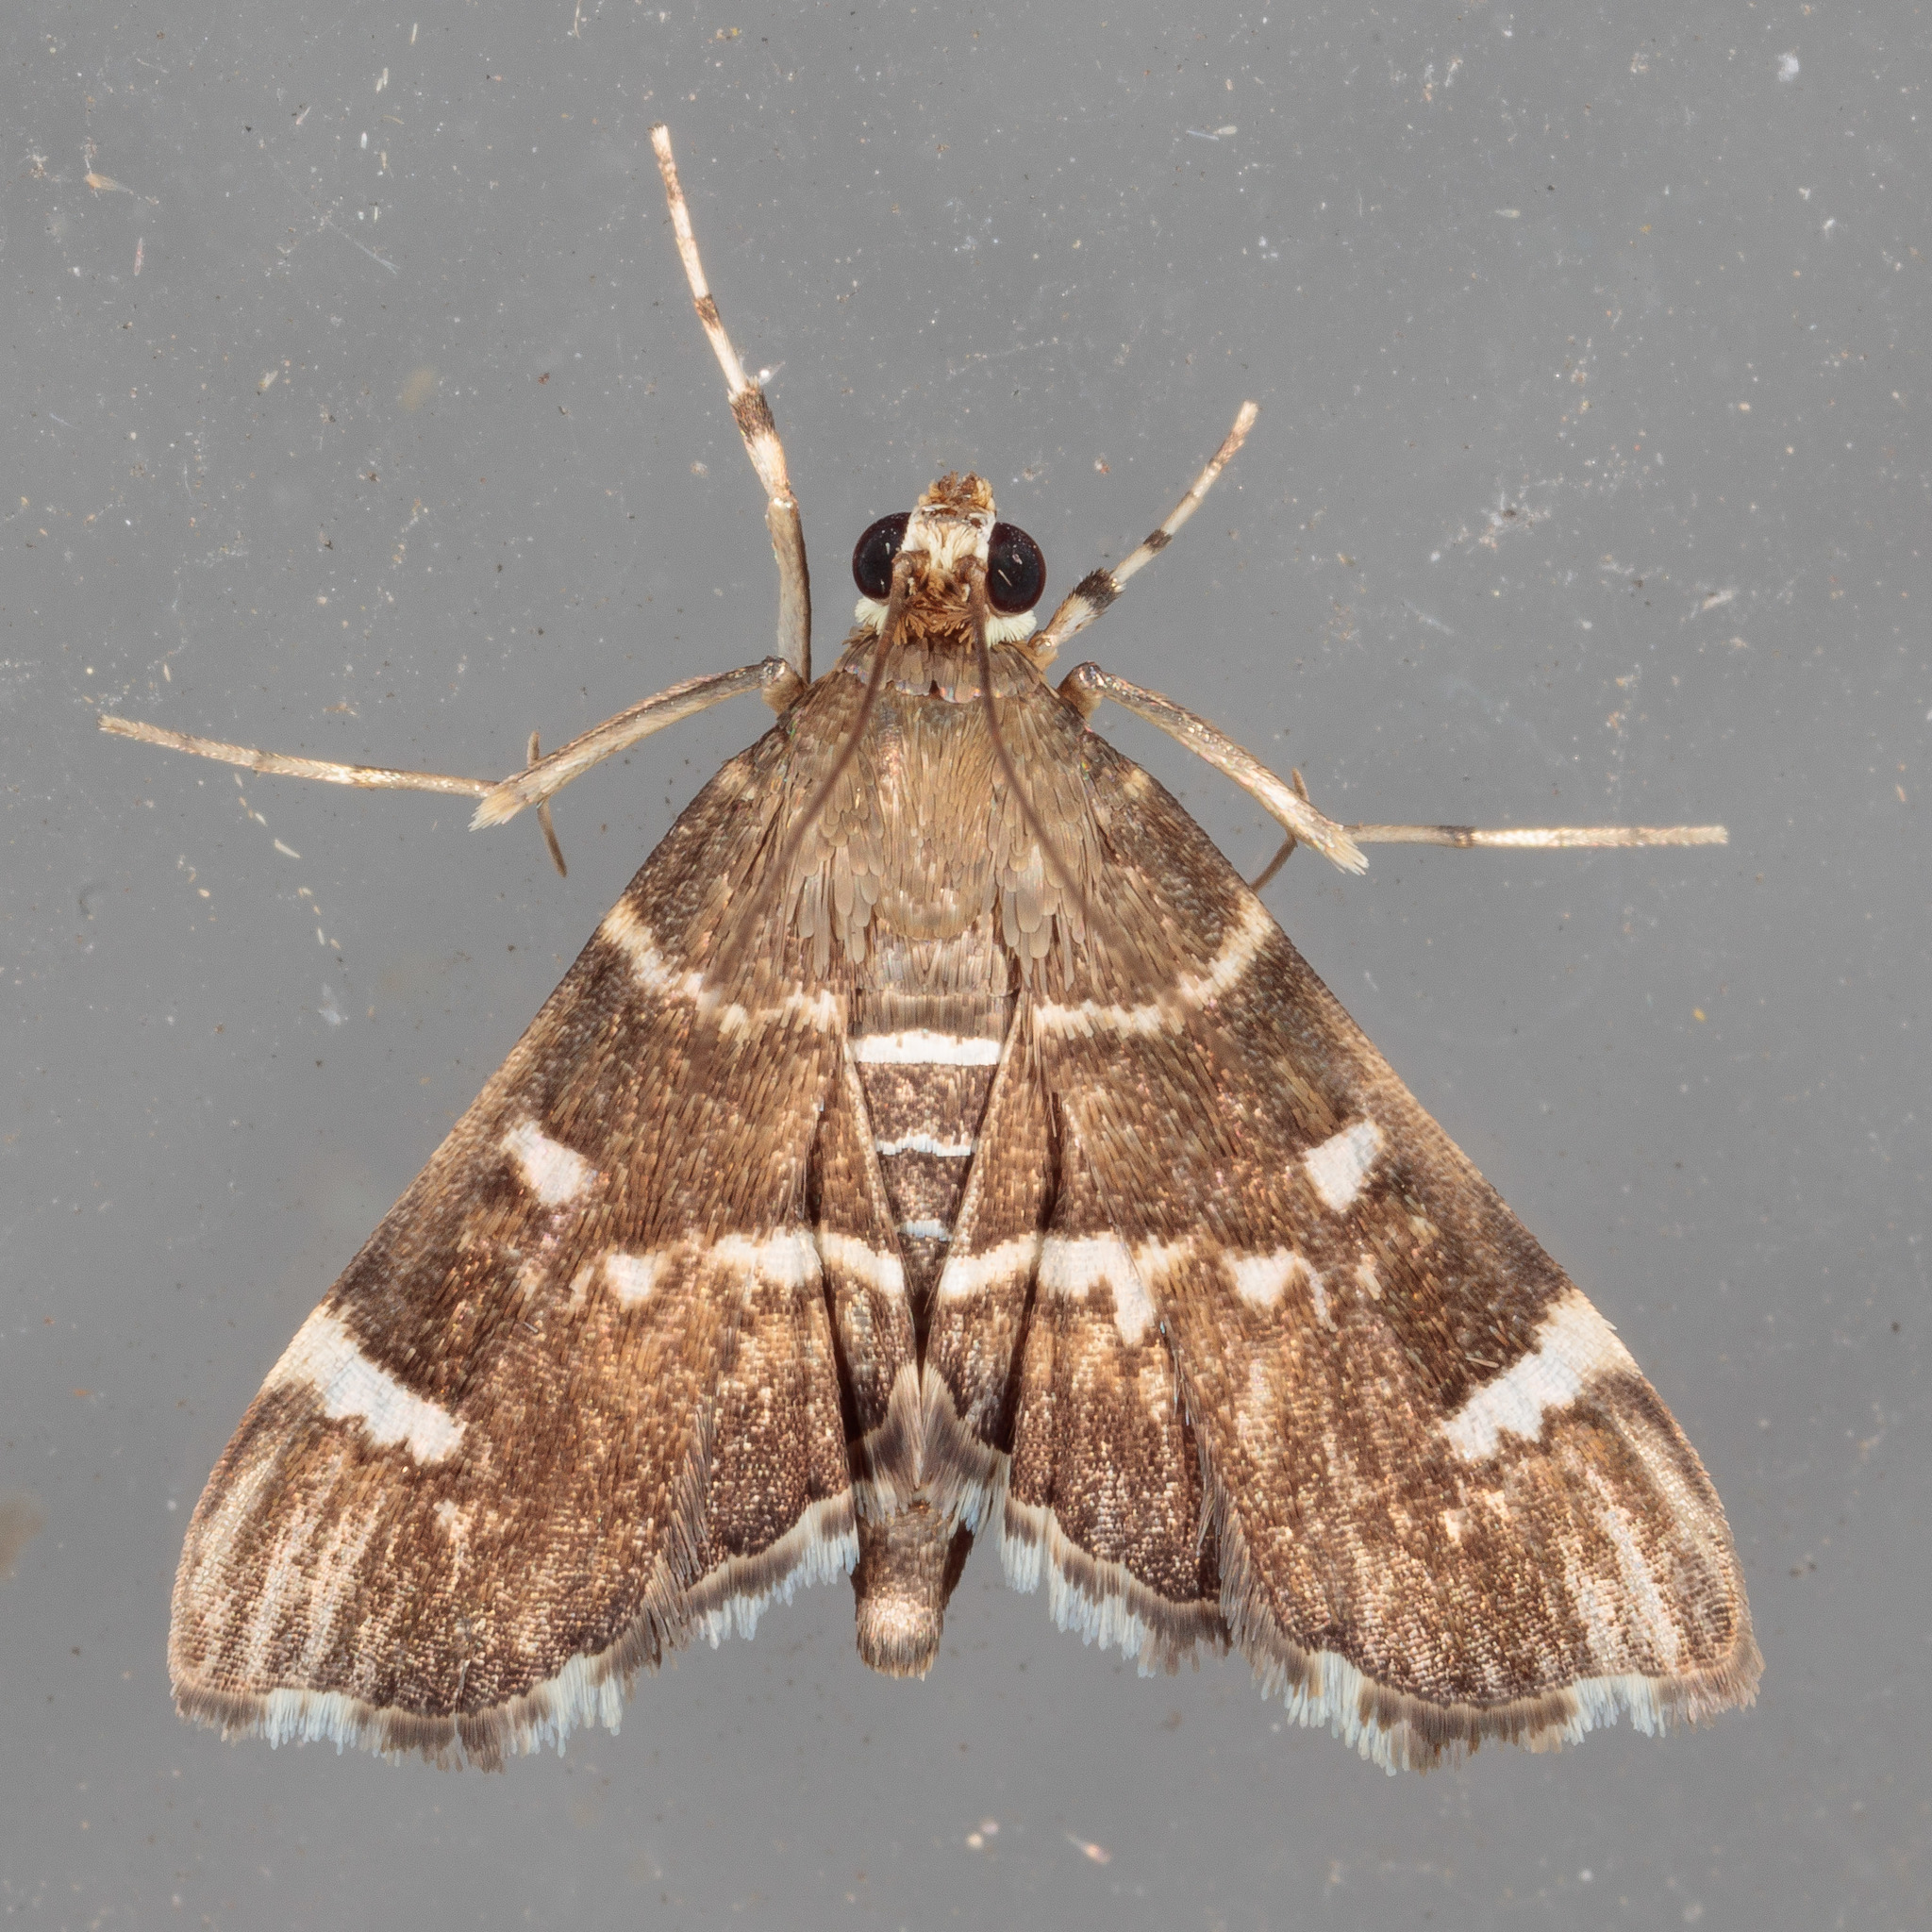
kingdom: Animalia
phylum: Arthropoda
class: Insecta
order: Lepidoptera
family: Crambidae
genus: Hymenia
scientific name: Hymenia perspectalis
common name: Spotted beet webworm
